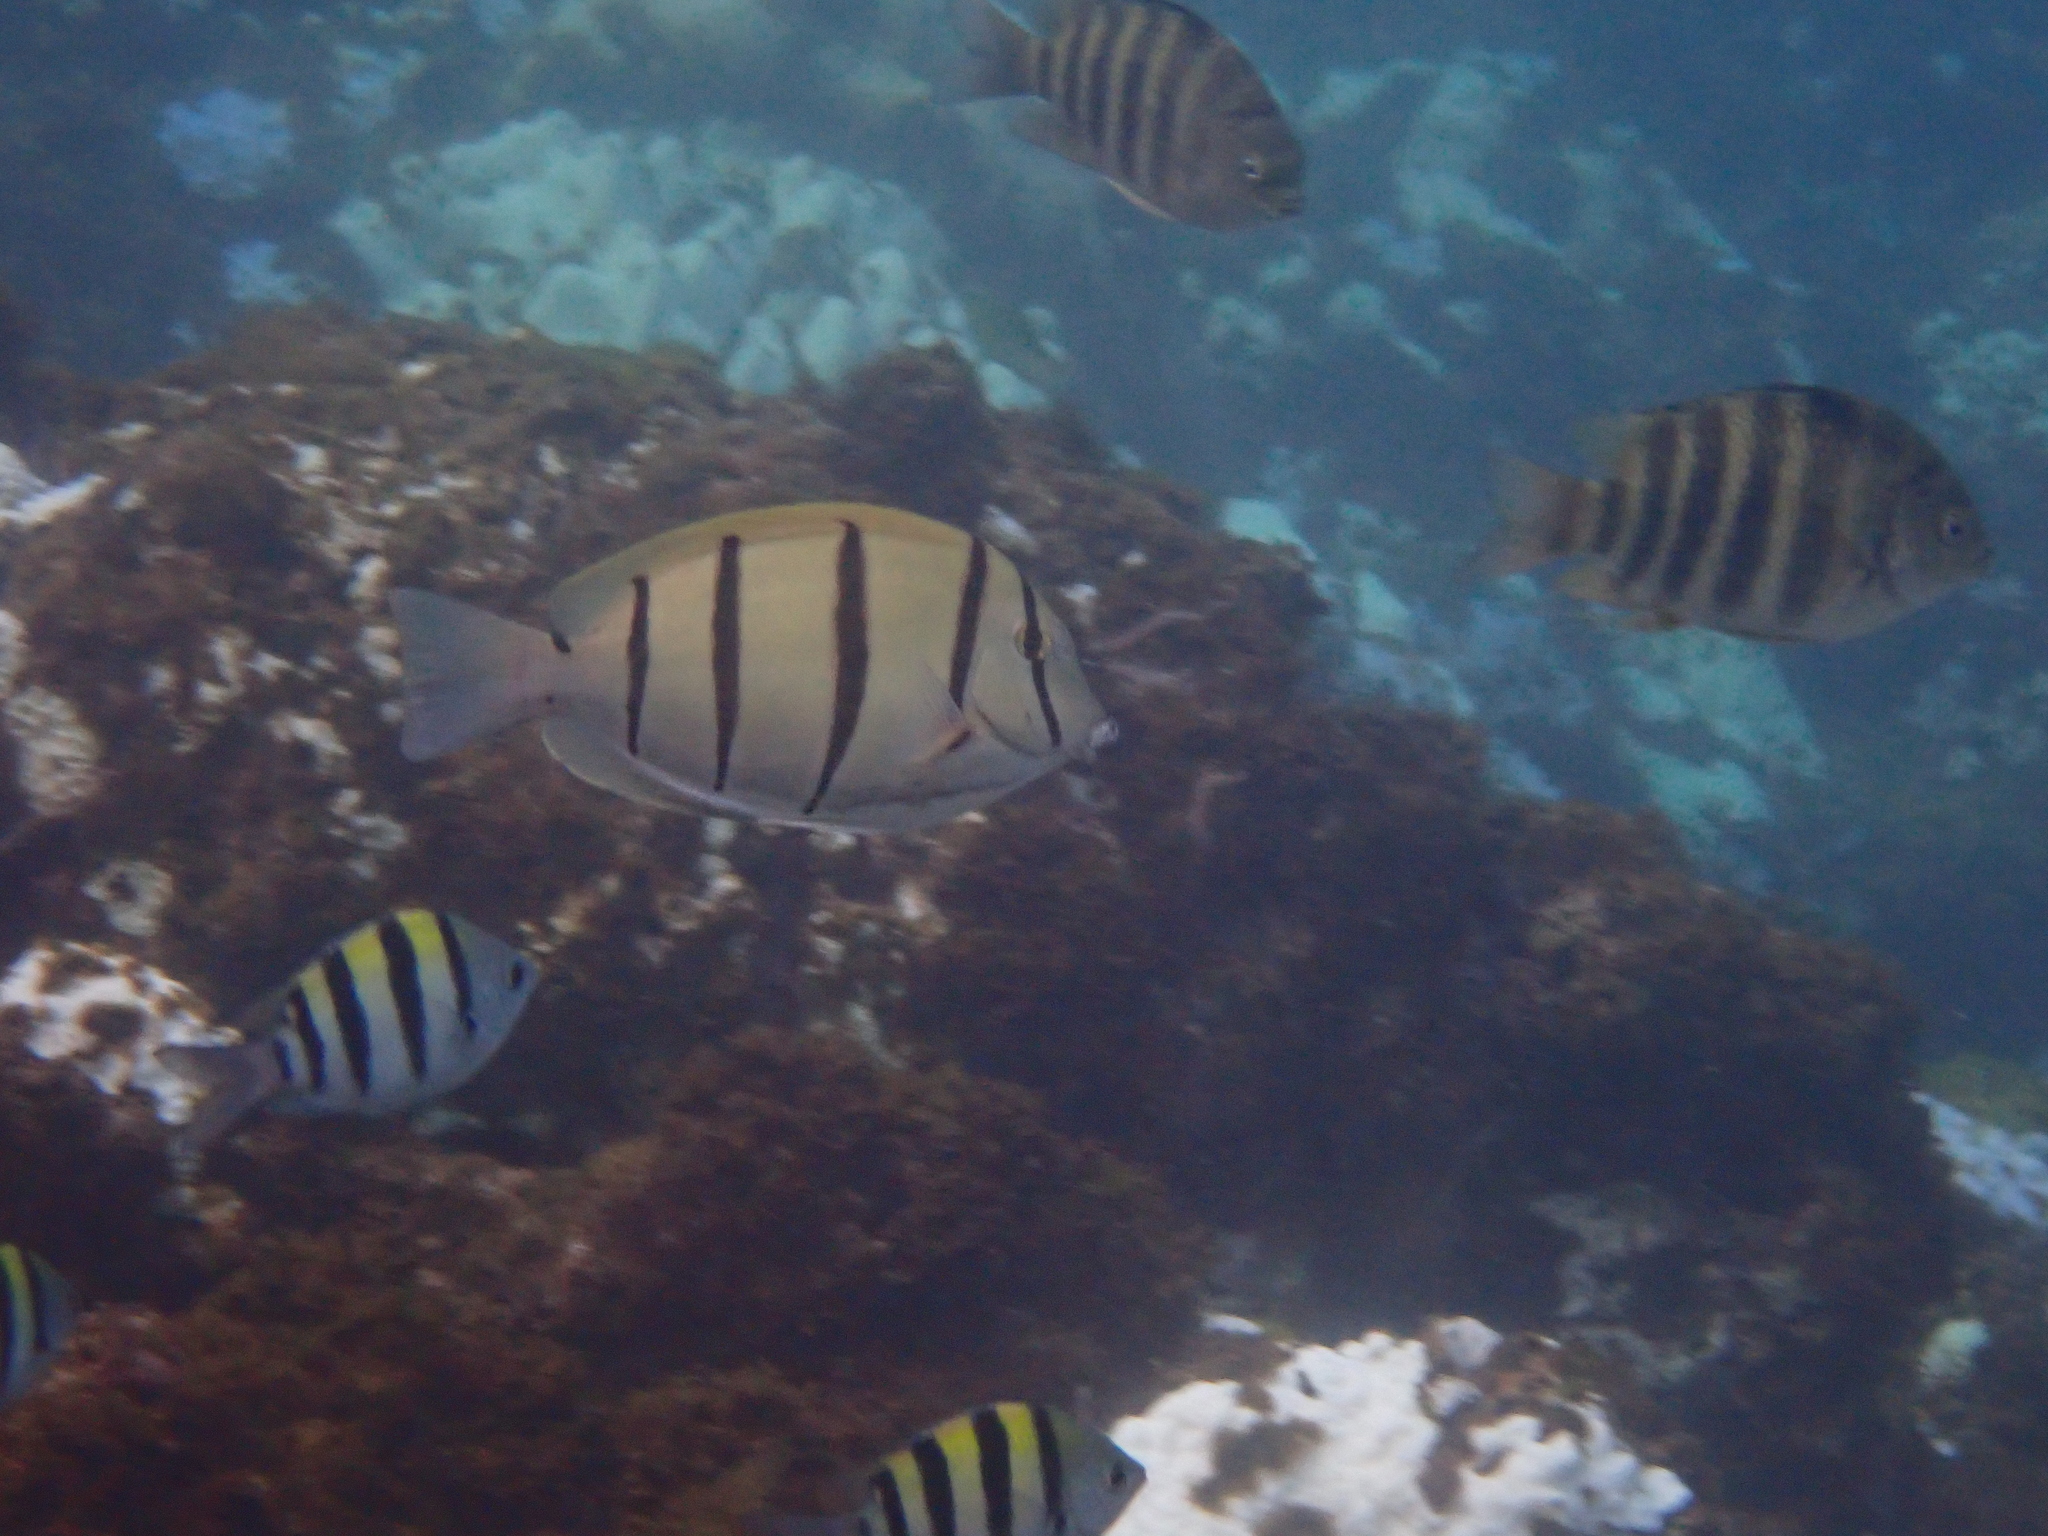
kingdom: Animalia
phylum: Chordata
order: Perciformes
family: Acanthuridae
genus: Acanthurus
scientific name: Acanthurus triostegus
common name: Convict surgeonfish
